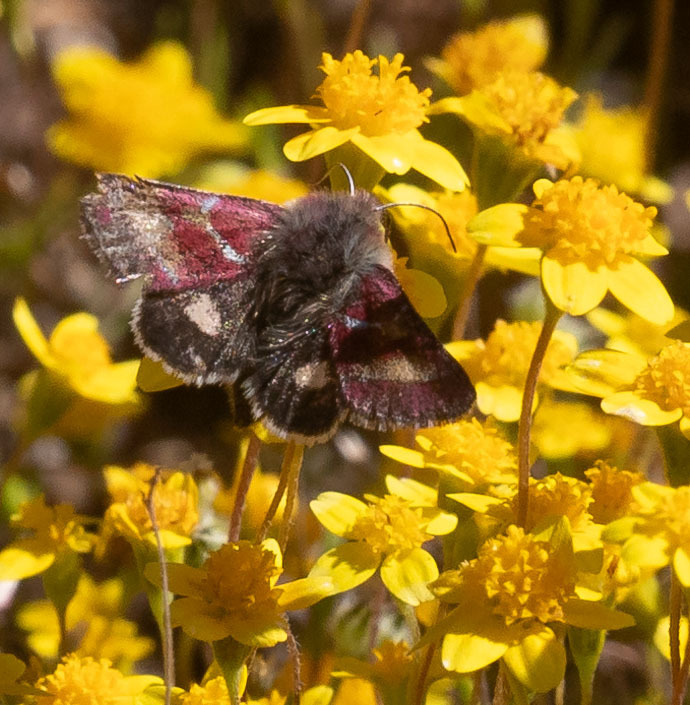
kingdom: Animalia
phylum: Arthropoda
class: Insecta
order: Lepidoptera
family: Noctuidae
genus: Schinia
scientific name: Schinia pulchripennis
